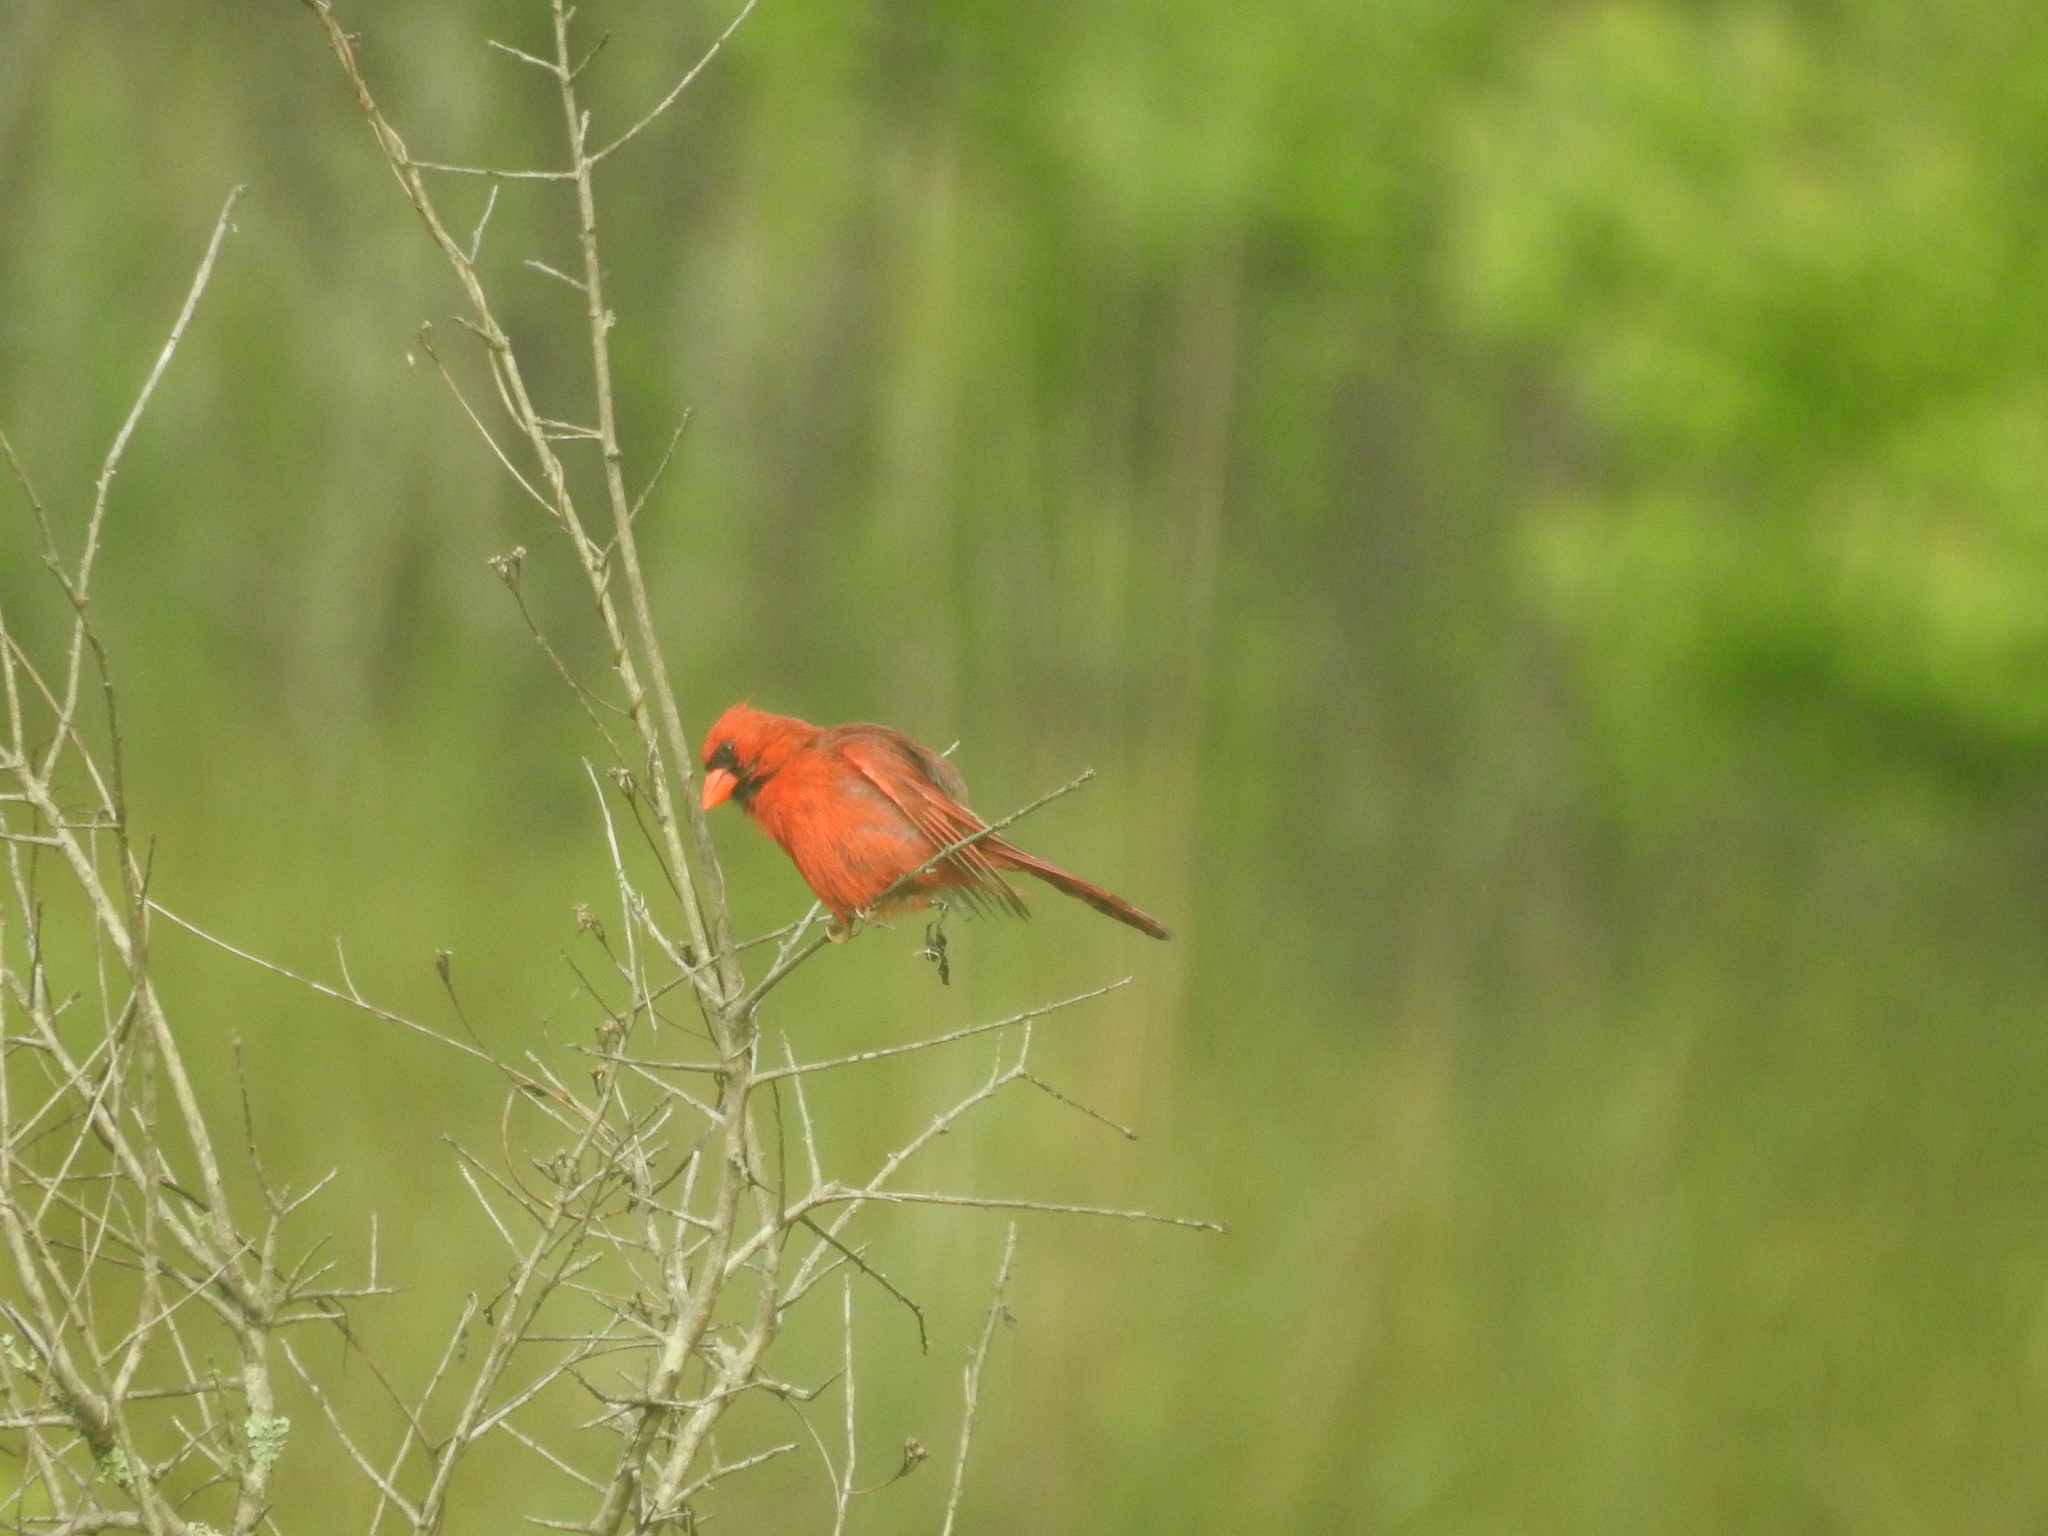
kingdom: Animalia
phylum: Chordata
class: Aves
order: Passeriformes
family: Cardinalidae
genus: Cardinalis
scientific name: Cardinalis cardinalis
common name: Northern cardinal
